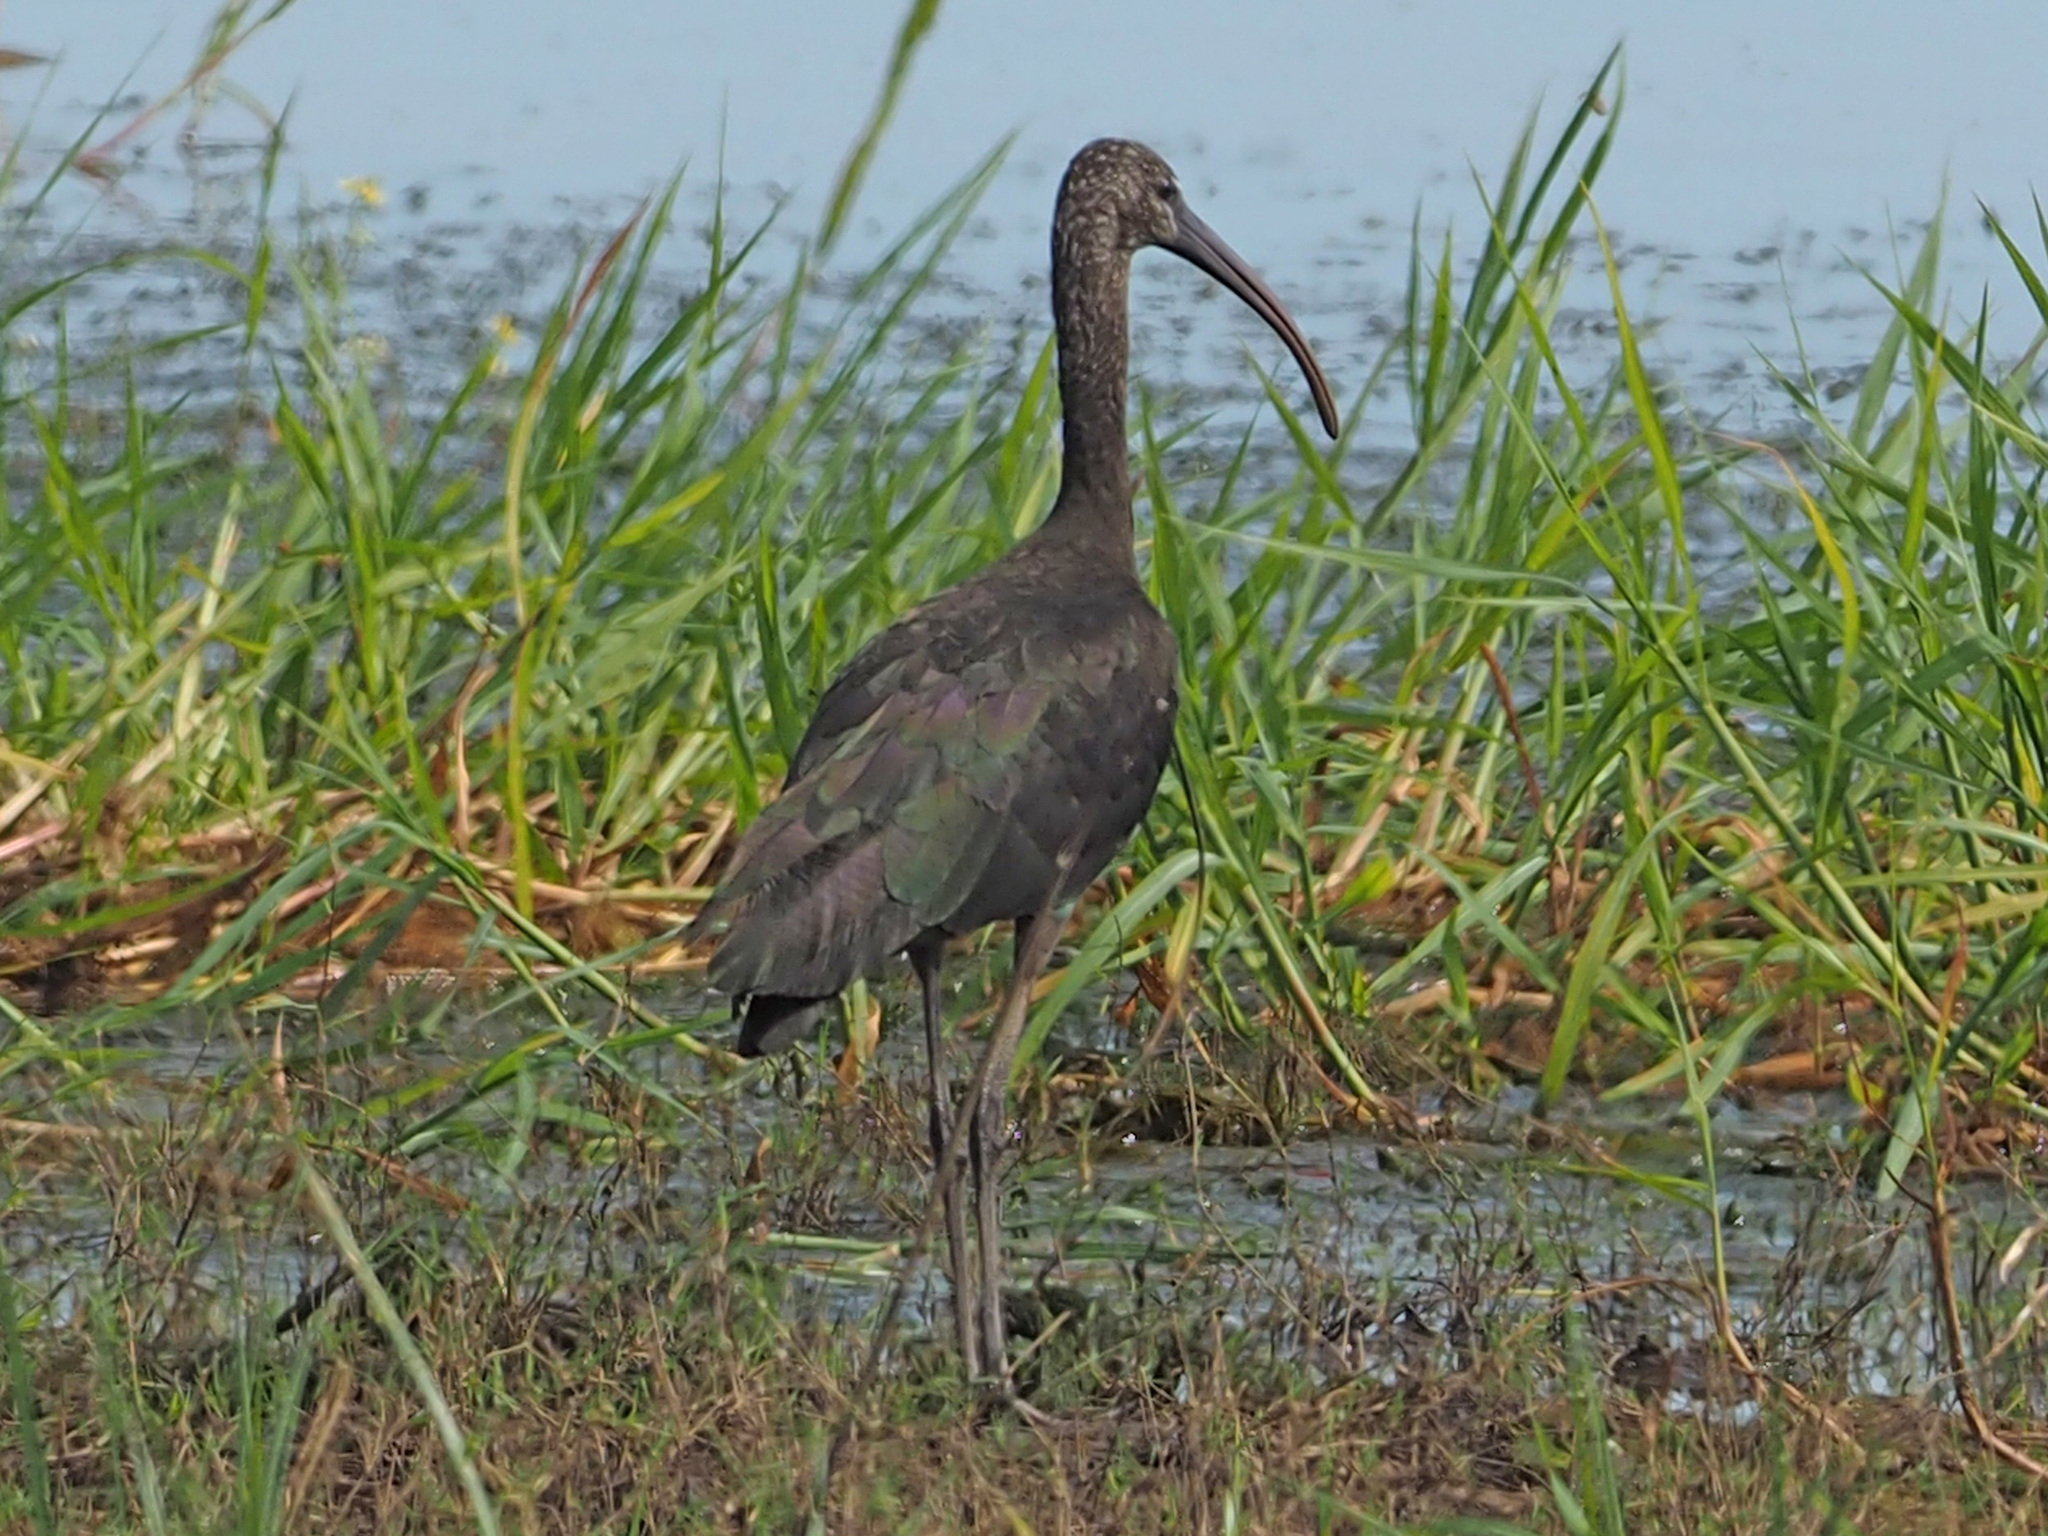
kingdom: Animalia
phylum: Chordata
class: Aves
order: Pelecaniformes
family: Threskiornithidae
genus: Plegadis
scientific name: Plegadis falcinellus
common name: Glossy ibis
